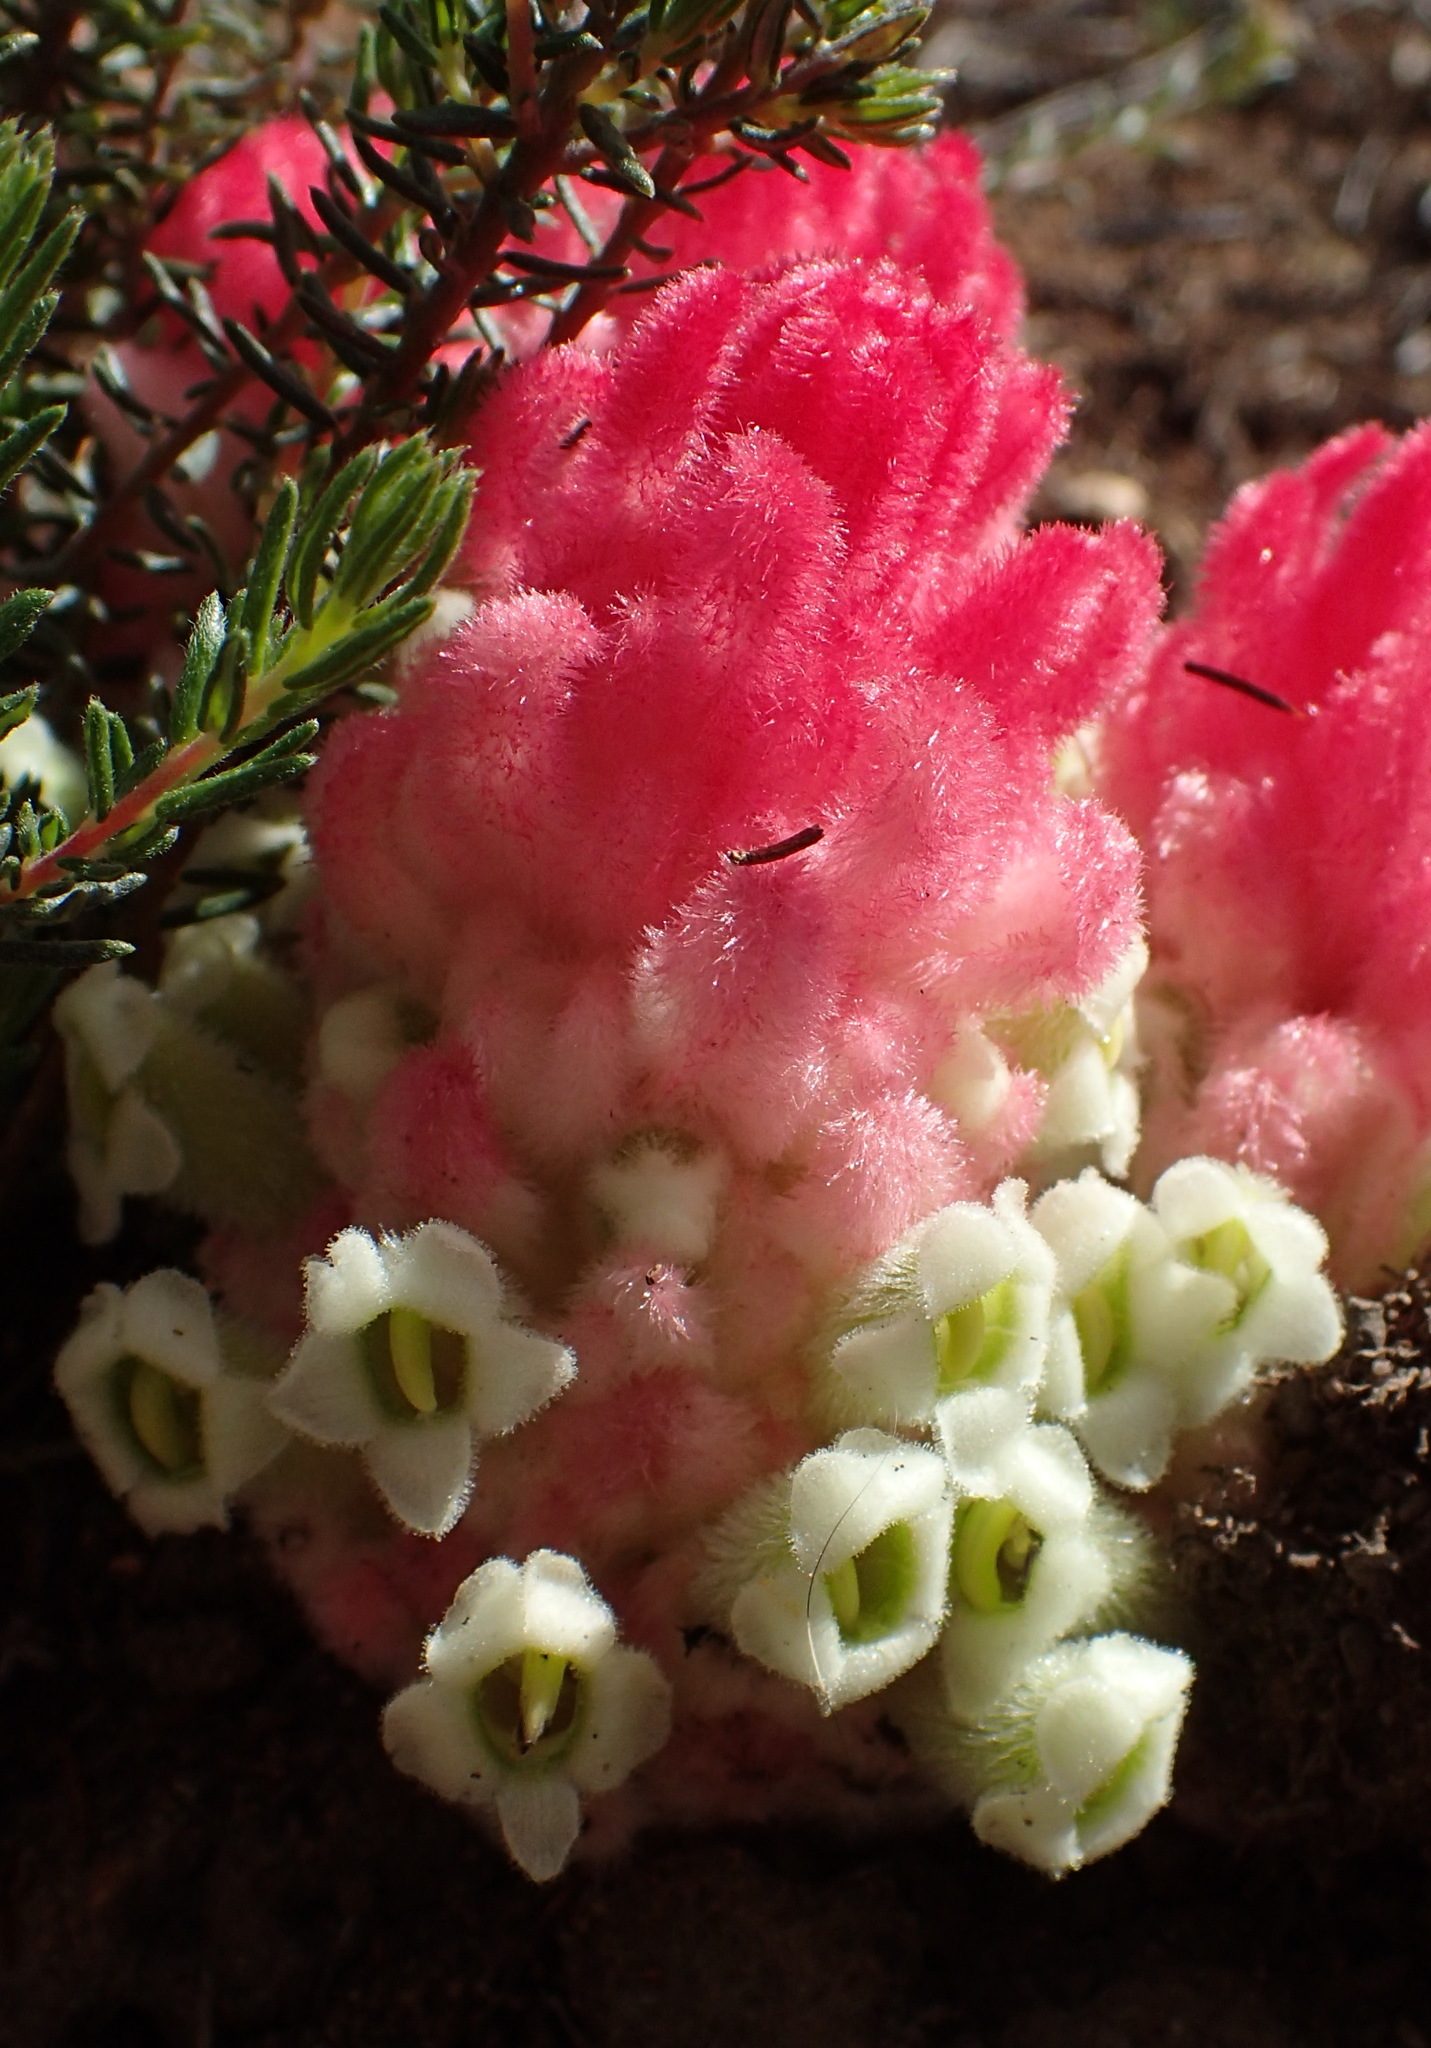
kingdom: Plantae
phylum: Tracheophyta
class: Magnoliopsida
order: Lamiales
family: Orobanchaceae
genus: Harveya
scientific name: Harveya roseoalba
